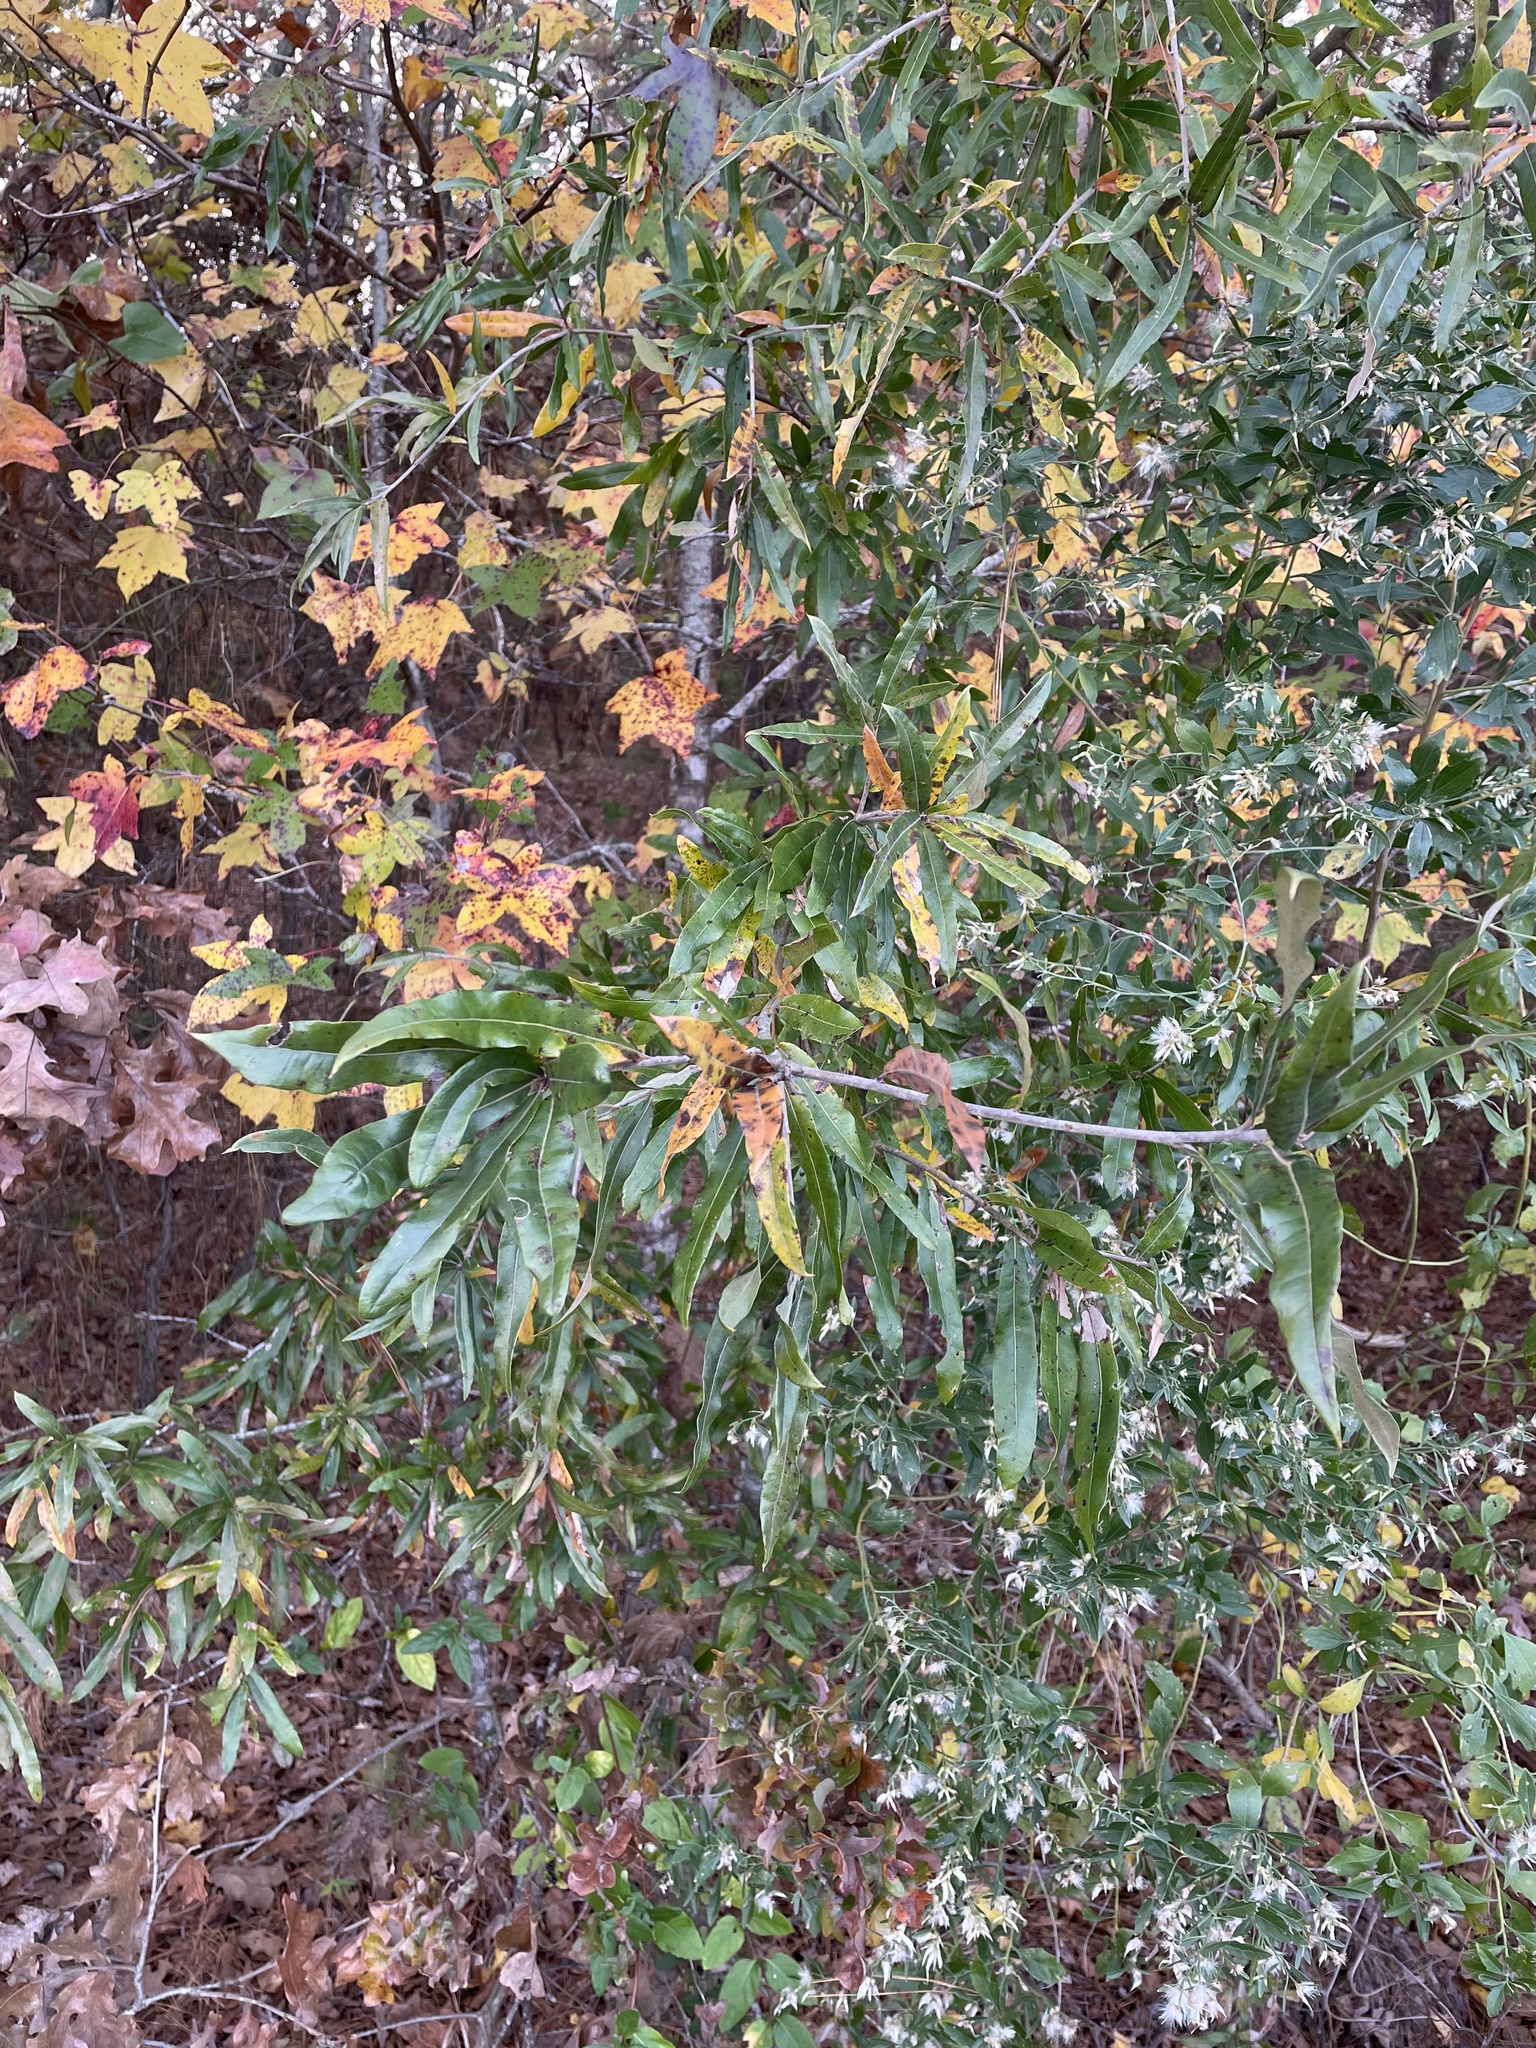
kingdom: Plantae
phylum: Tracheophyta
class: Magnoliopsida
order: Fagales
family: Fagaceae
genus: Quercus
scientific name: Quercus phellos
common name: Willow oak
